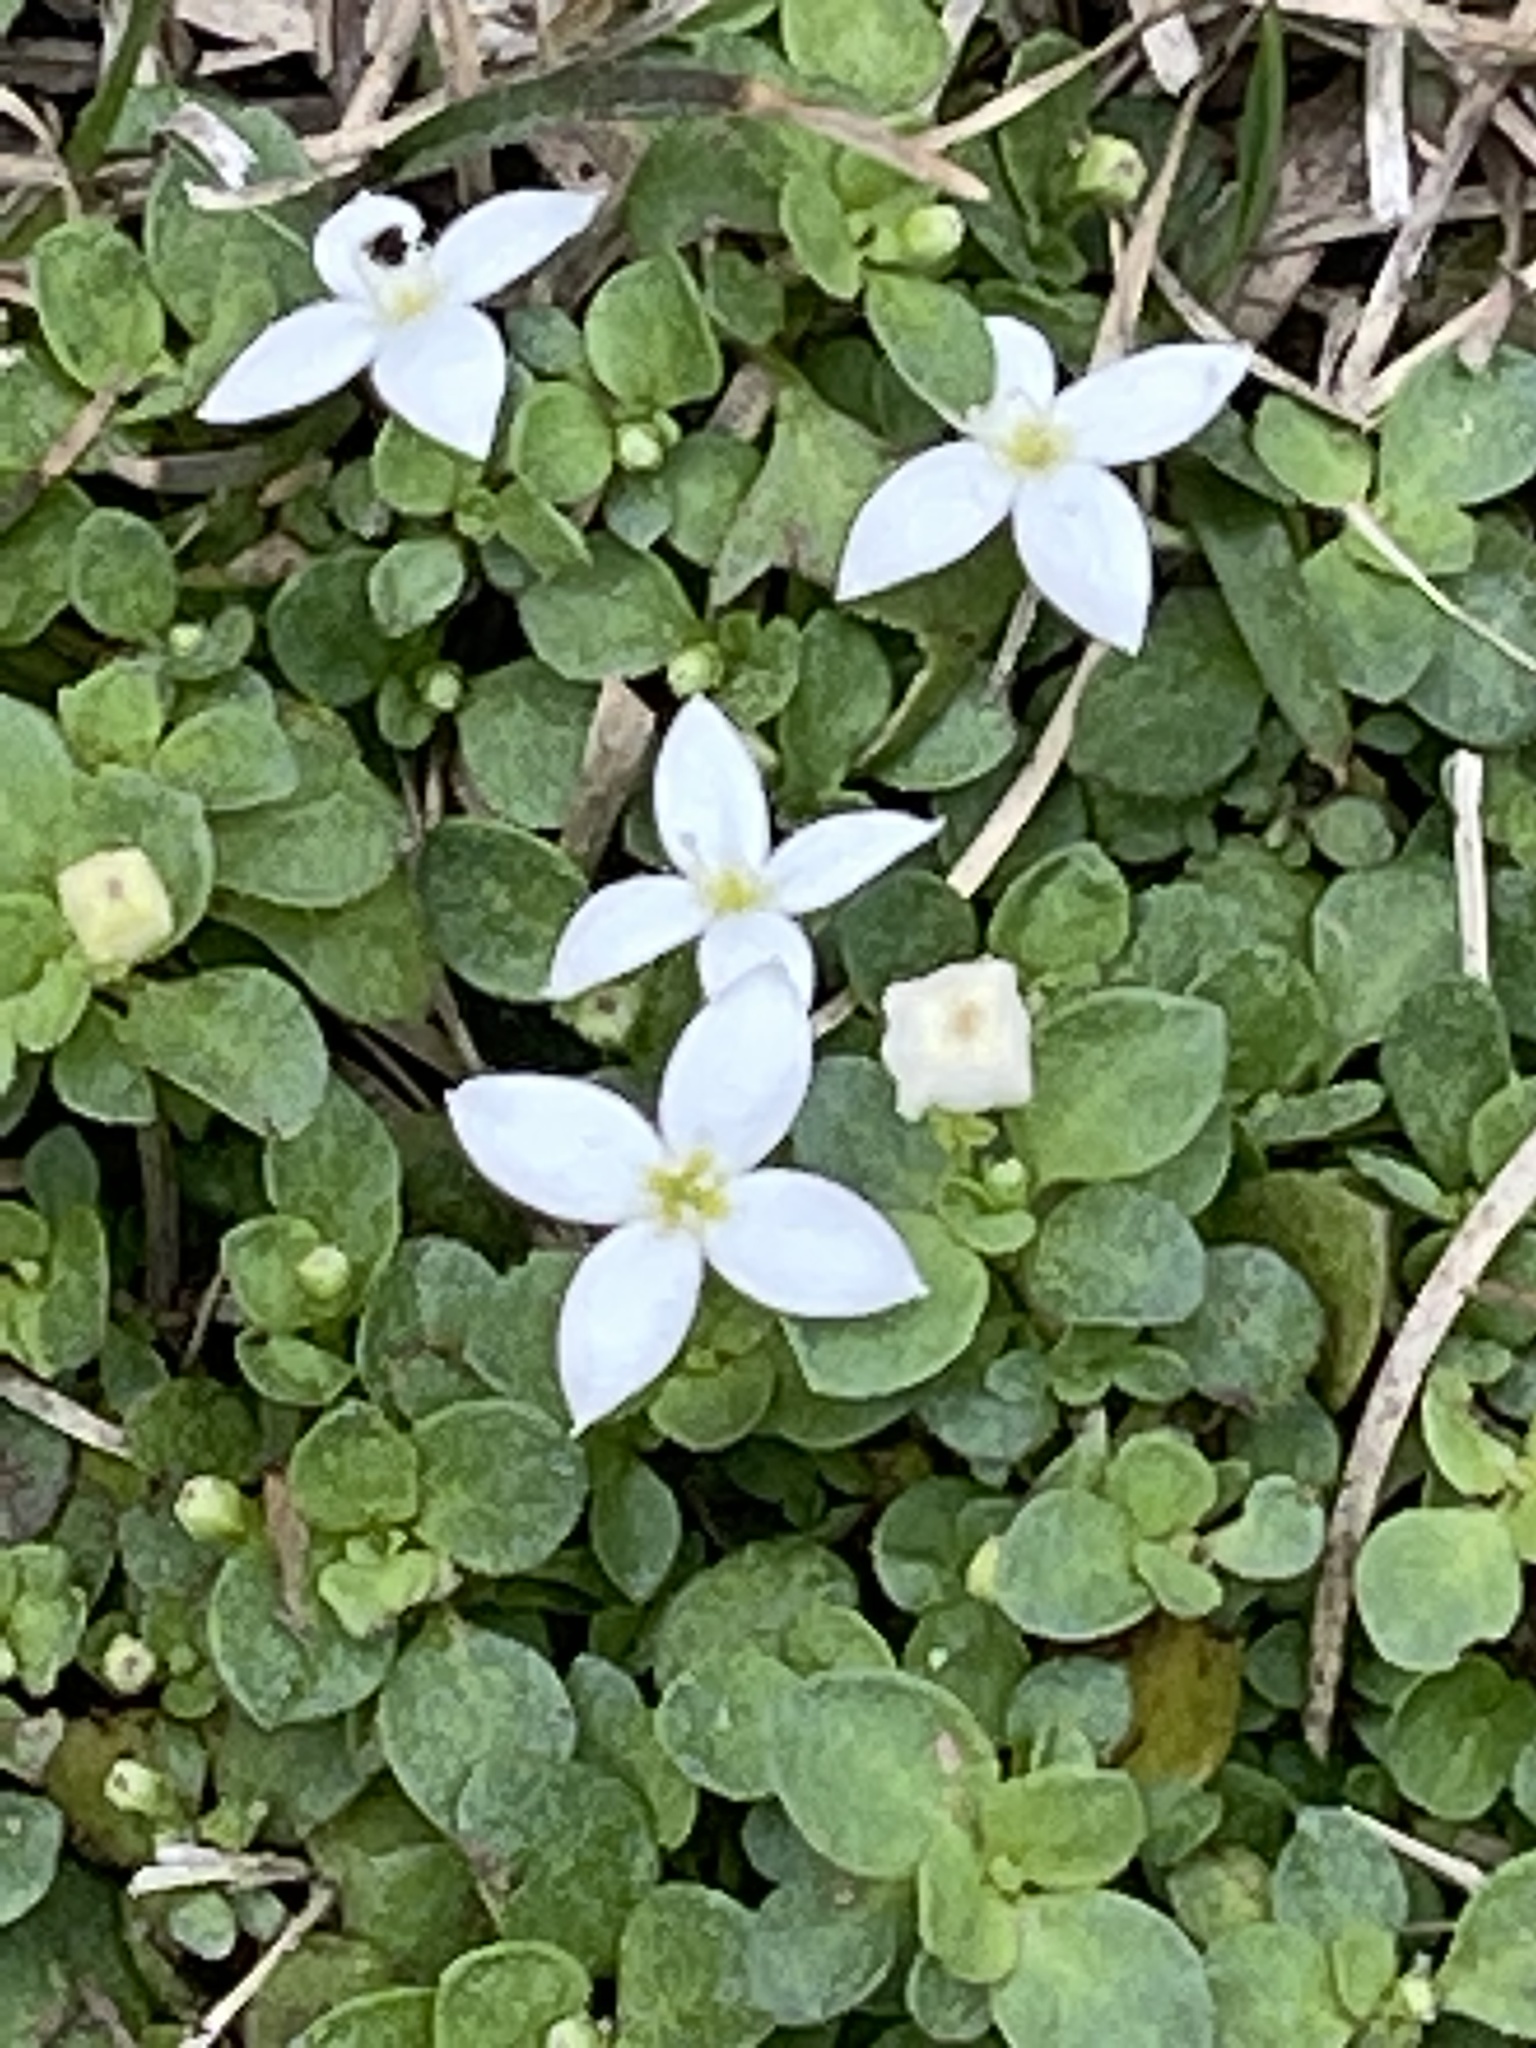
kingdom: Plantae
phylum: Tracheophyta
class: Magnoliopsida
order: Gentianales
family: Rubiaceae
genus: Houstonia
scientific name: Houstonia procumbens
